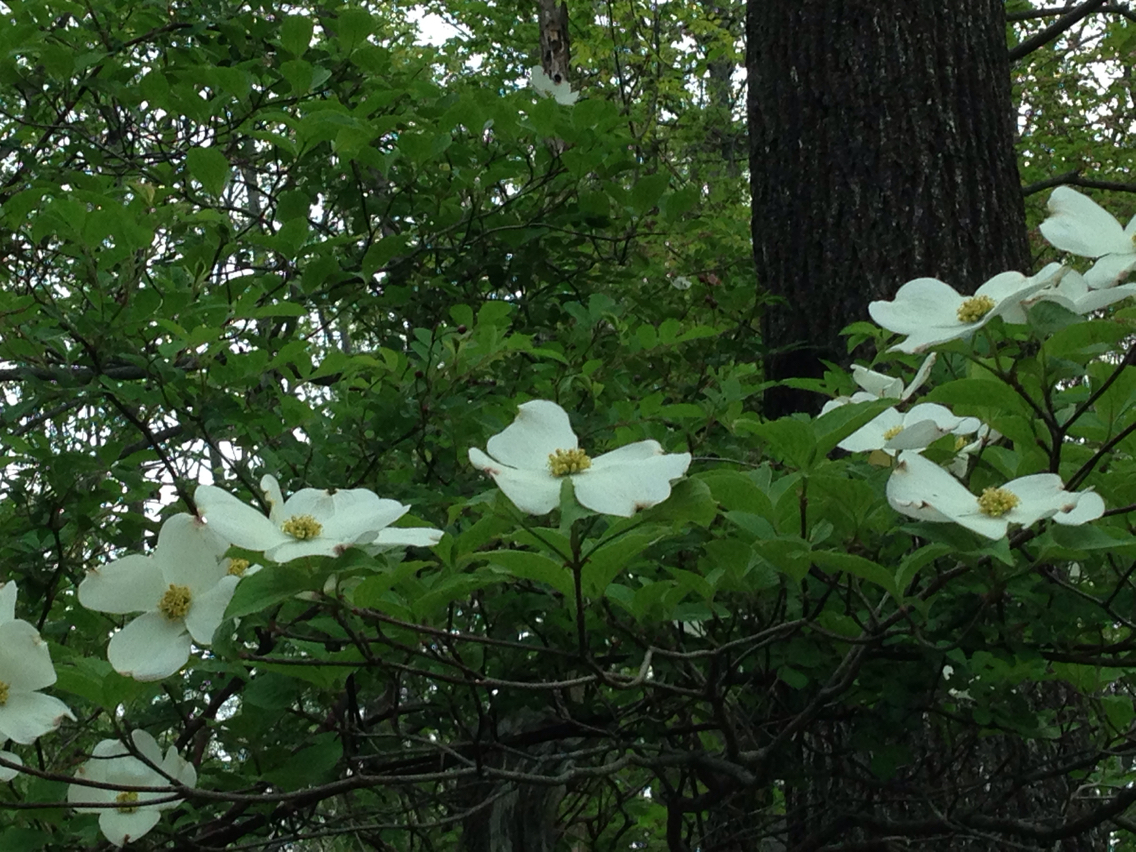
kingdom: Plantae
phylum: Tracheophyta
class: Magnoliopsida
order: Cornales
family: Cornaceae
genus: Cornus
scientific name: Cornus florida
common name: Flowering dogwood
